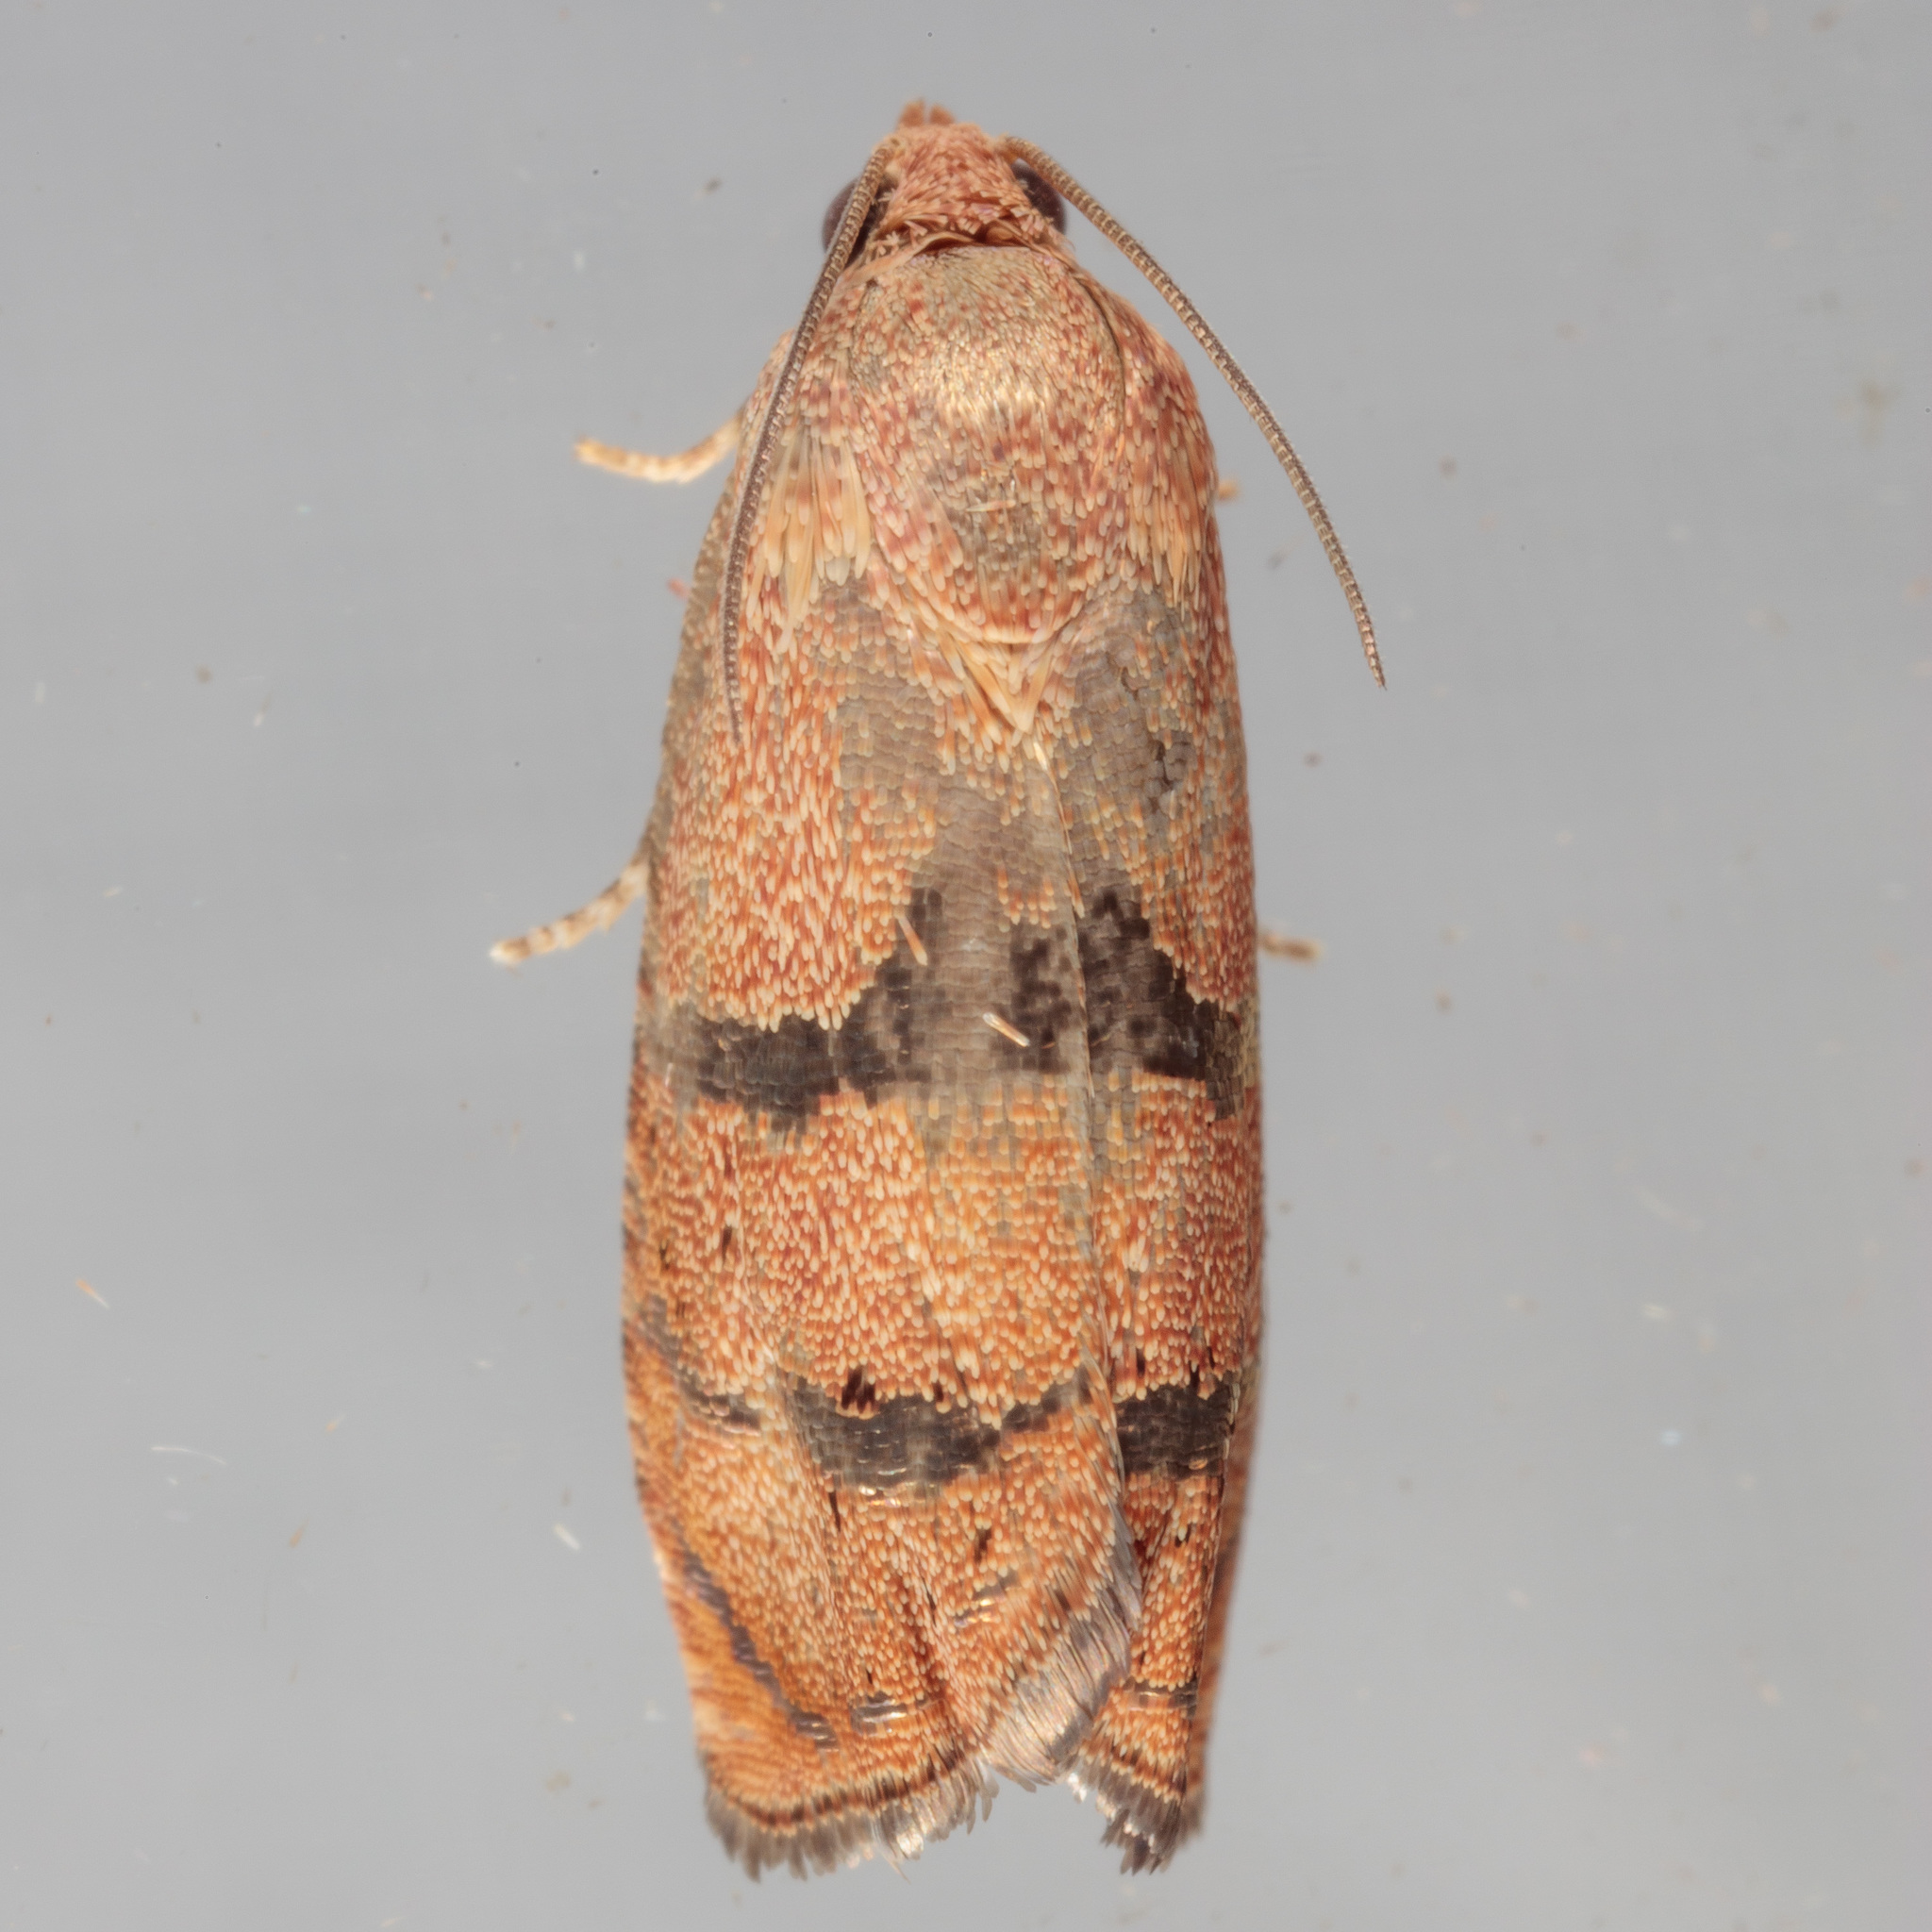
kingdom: Animalia
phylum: Arthropoda
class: Insecta
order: Lepidoptera
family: Tortricidae
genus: Cydia
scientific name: Cydia latiferreana
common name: Filbertworm moth
